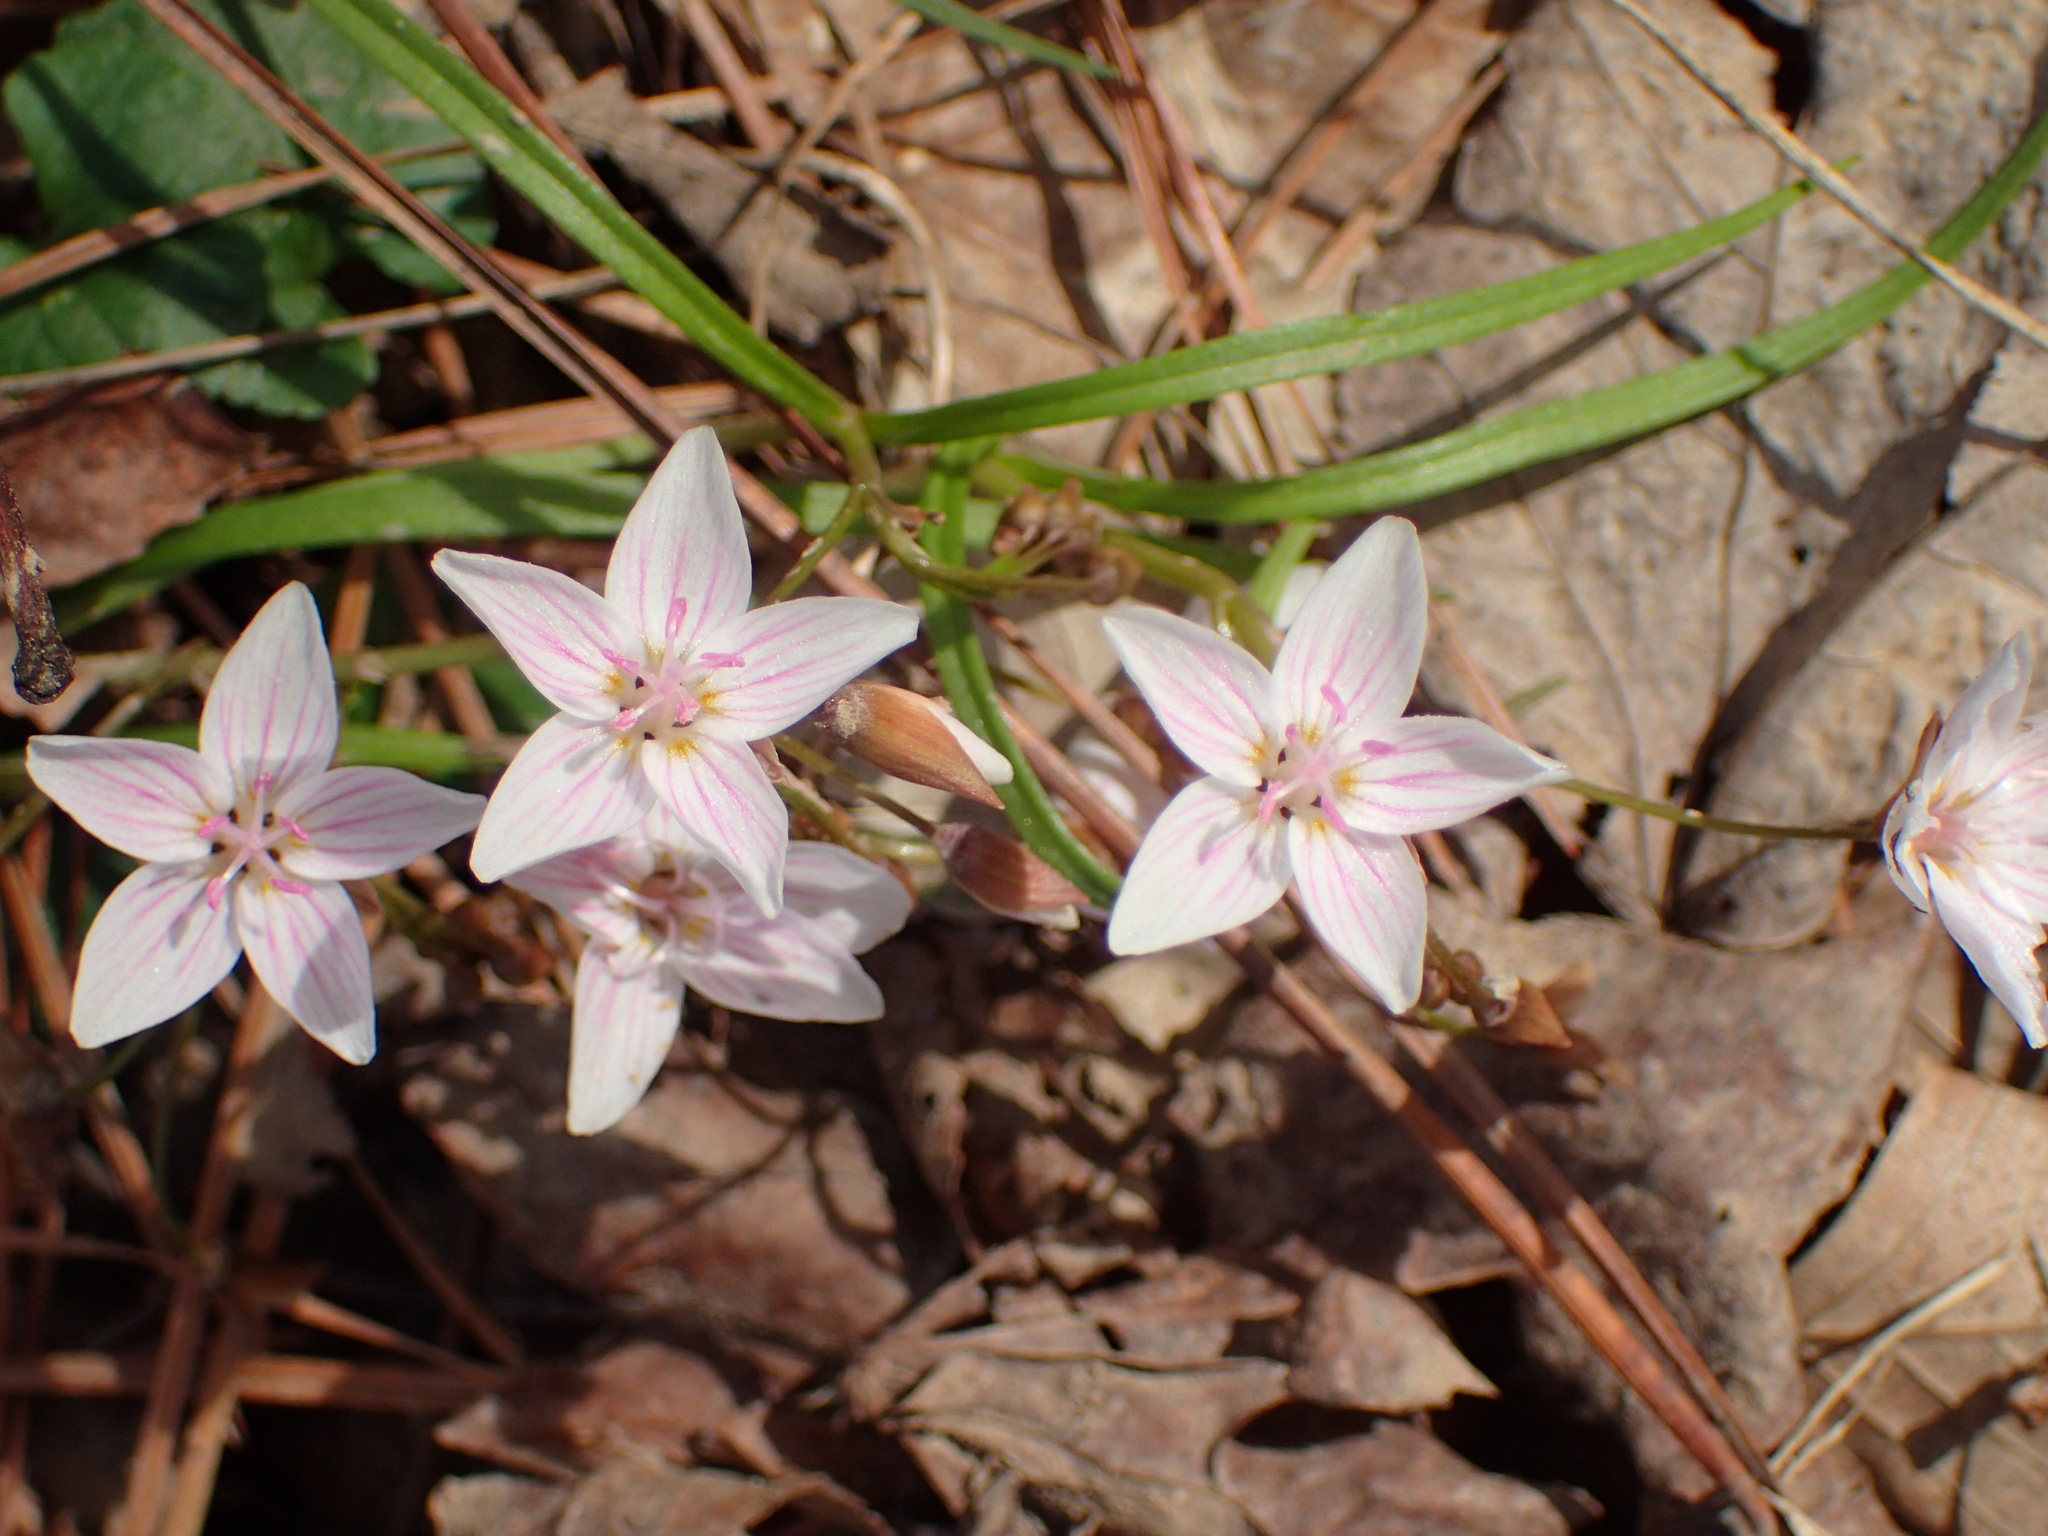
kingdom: Plantae
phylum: Tracheophyta
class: Magnoliopsida
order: Caryophyllales
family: Montiaceae
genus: Claytonia
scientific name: Claytonia virginica
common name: Virginia springbeauty
